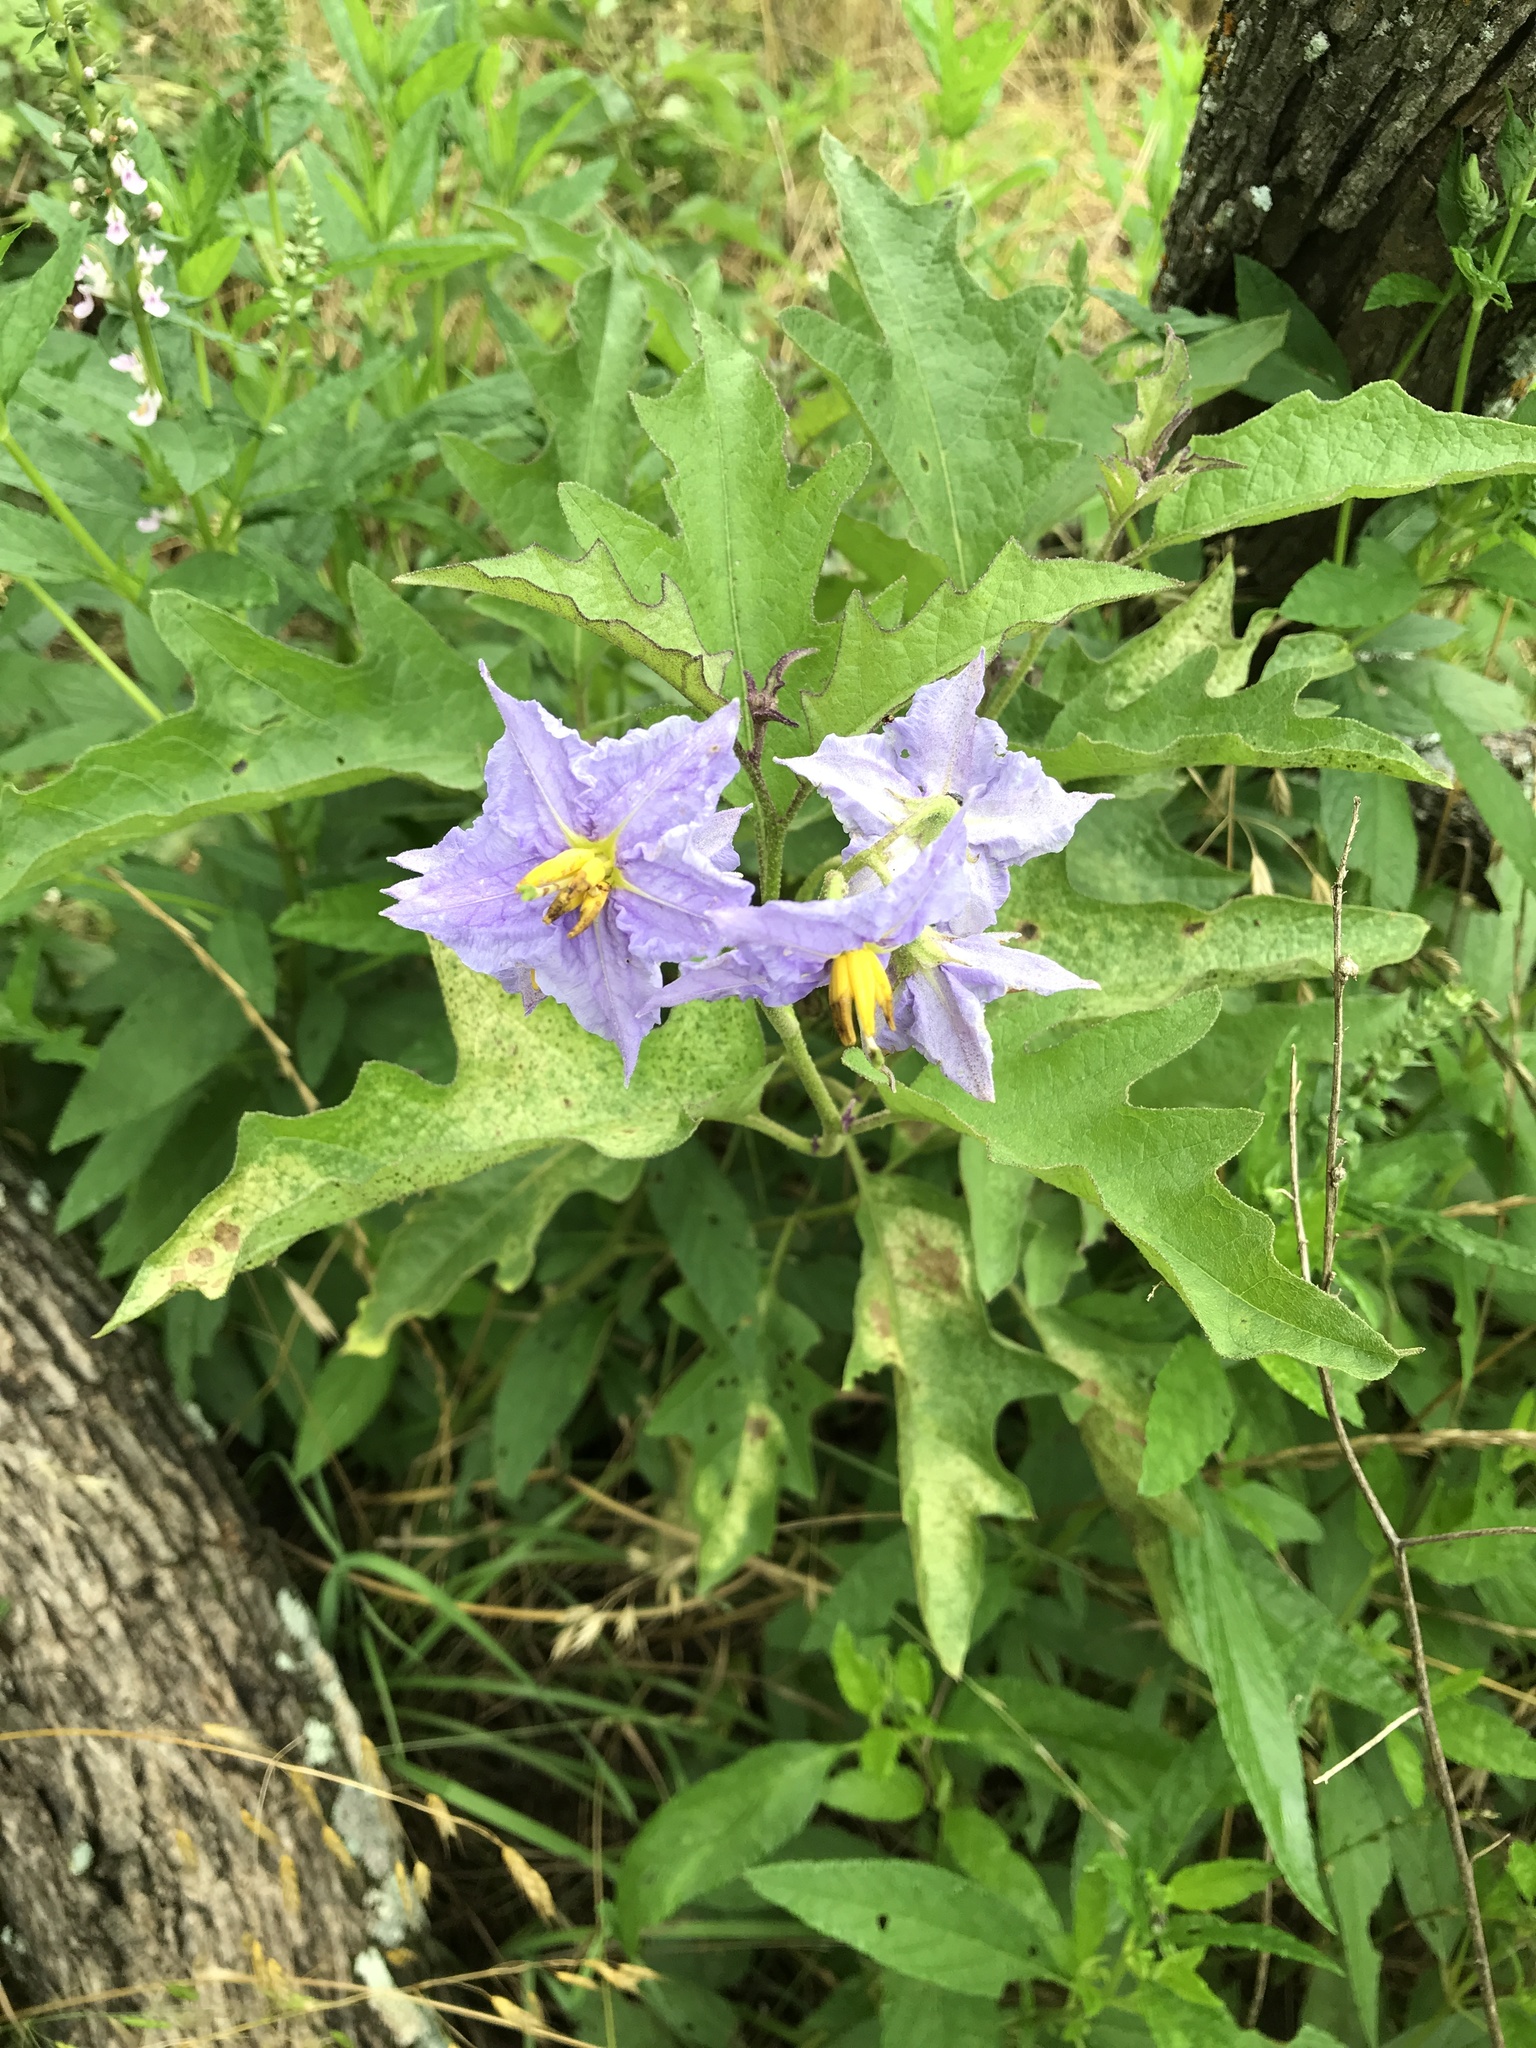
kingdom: Plantae
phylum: Tracheophyta
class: Magnoliopsida
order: Solanales
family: Solanaceae
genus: Solanum
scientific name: Solanum dimidiatum
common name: Carolina horse-nettle
